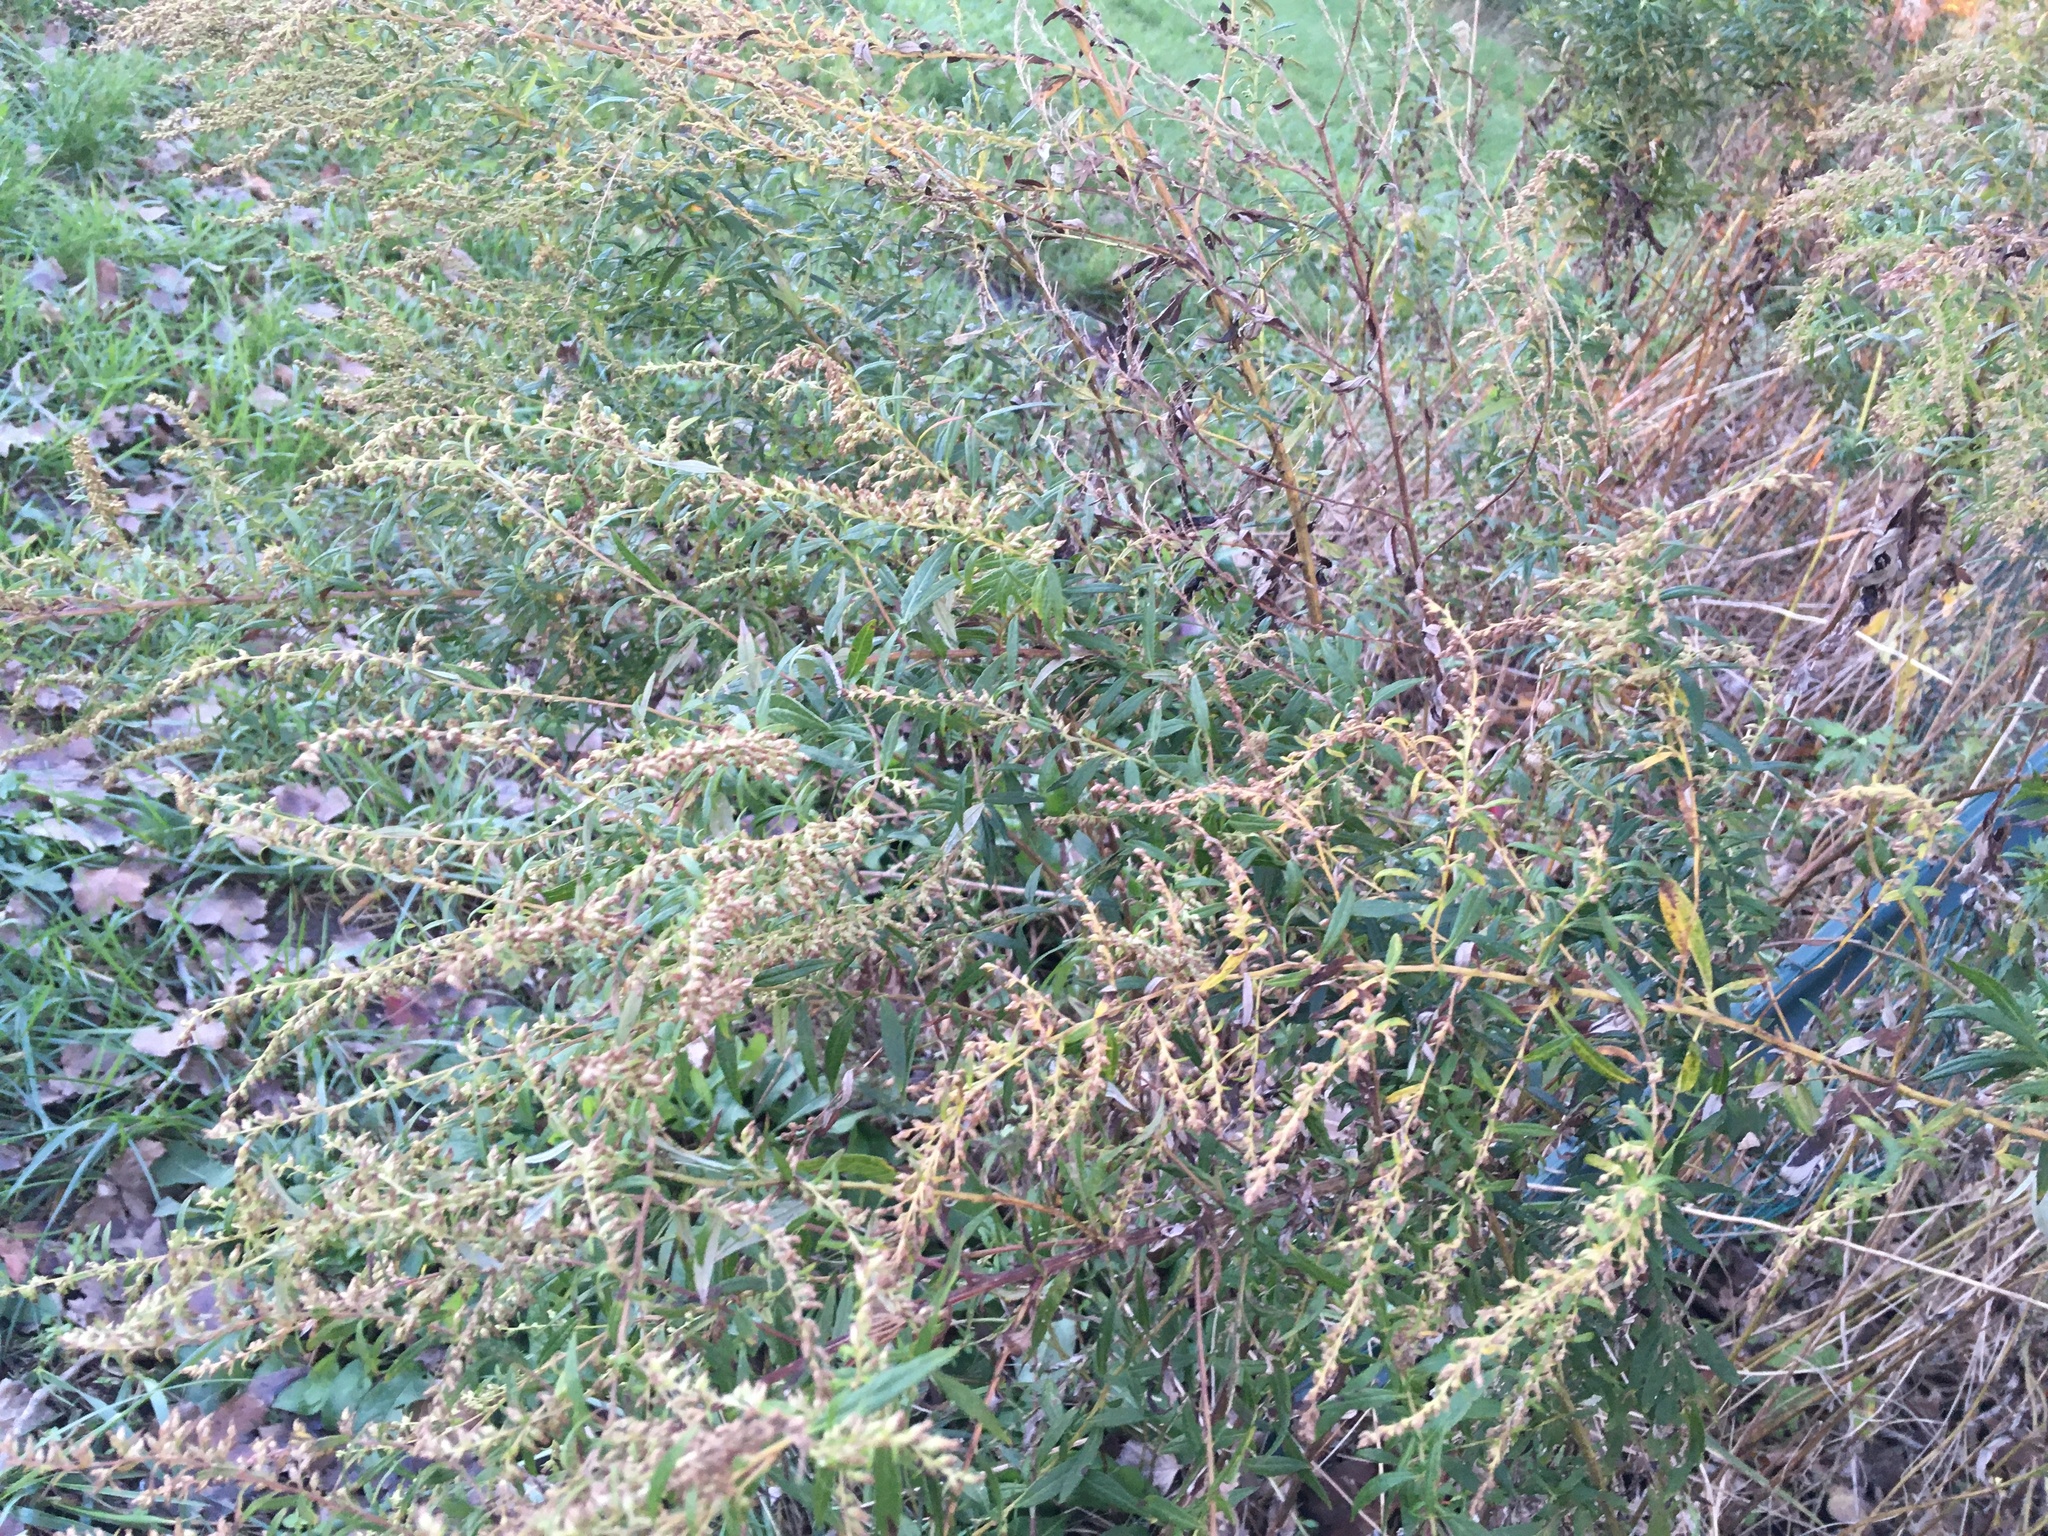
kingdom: Plantae
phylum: Tracheophyta
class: Magnoliopsida
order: Asterales
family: Asteraceae
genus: Artemisia
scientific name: Artemisia vulgaris
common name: Mugwort
